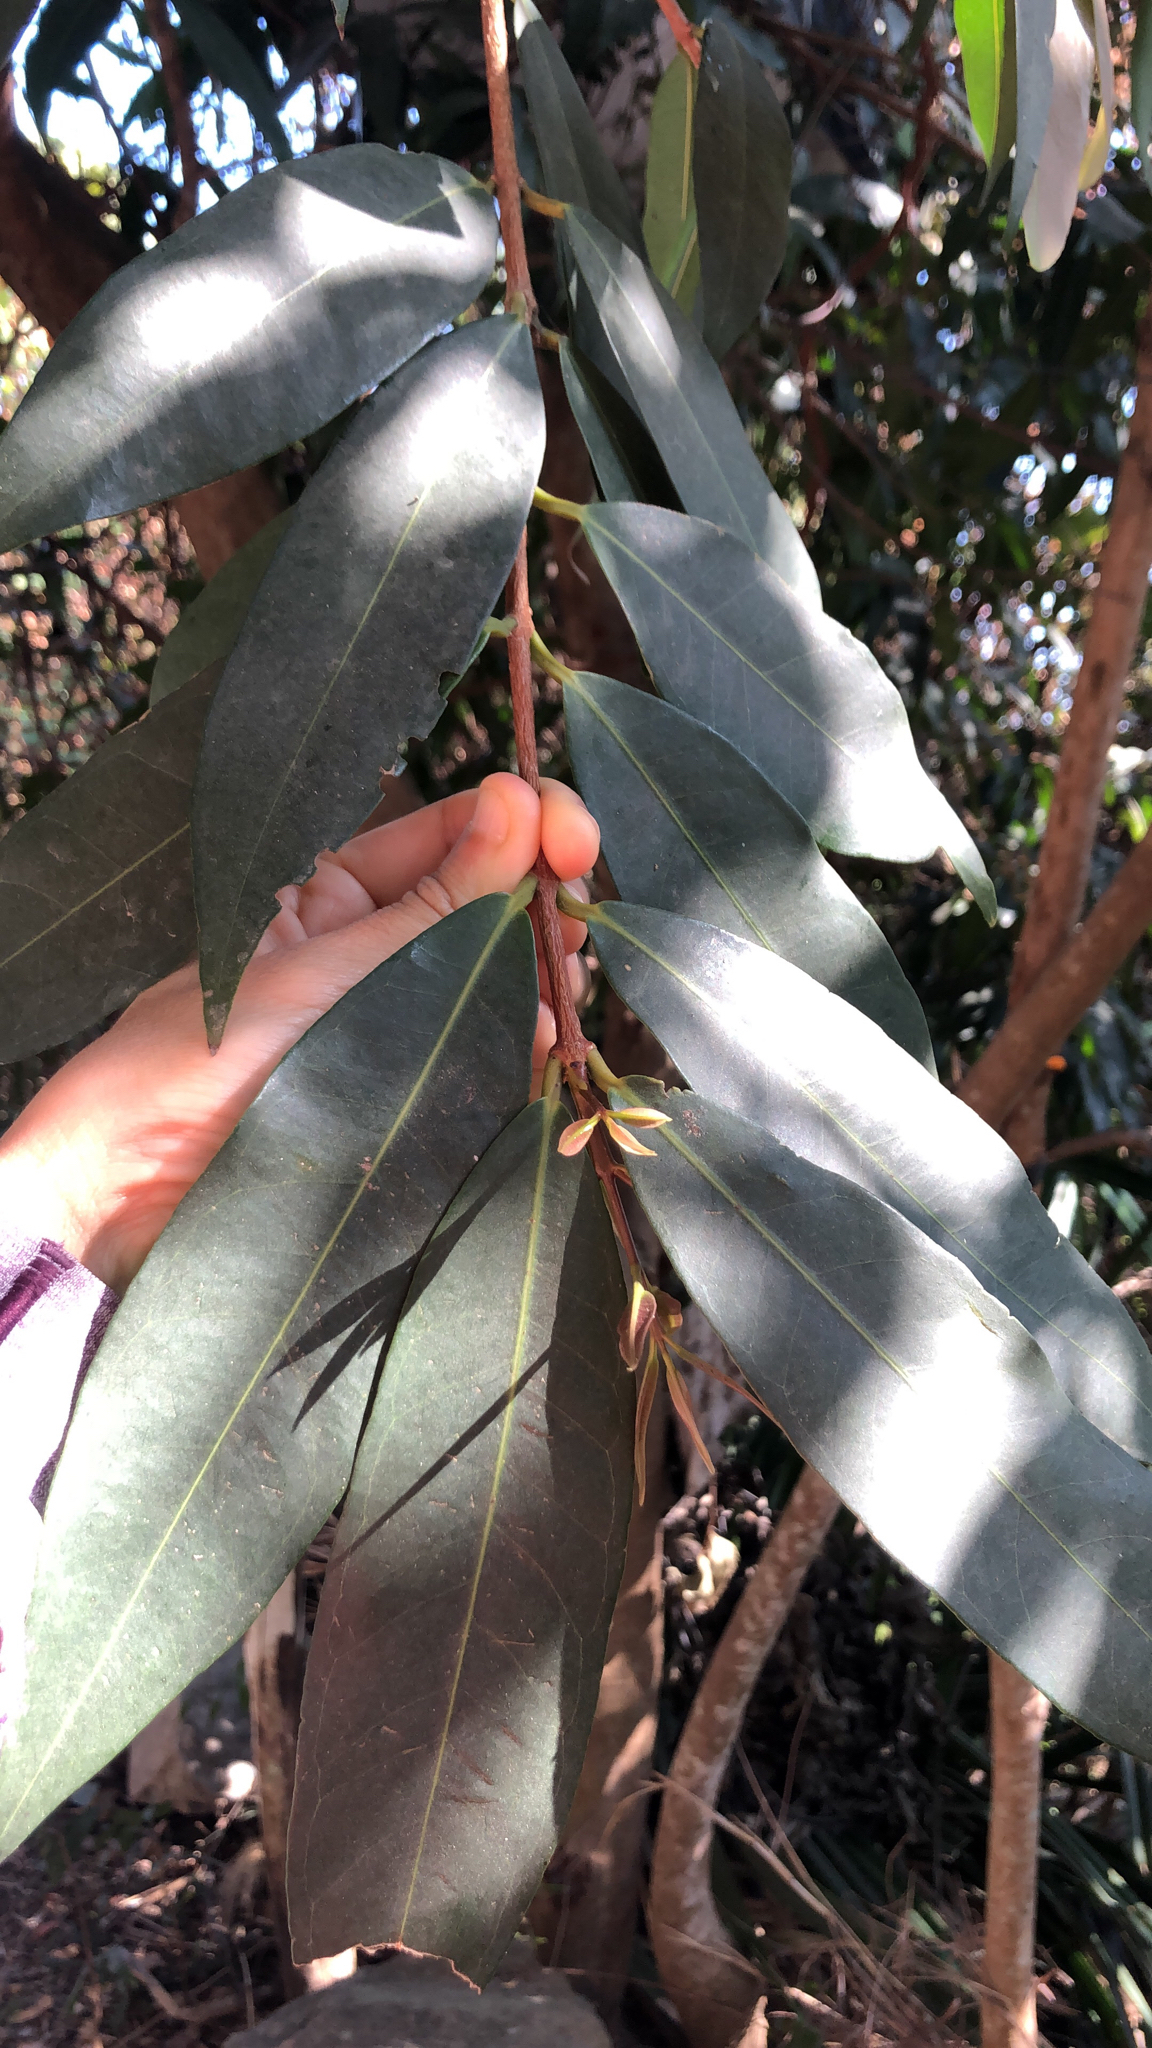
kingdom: Plantae
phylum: Tracheophyta
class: Magnoliopsida
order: Myrtales
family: Myrtaceae
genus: Syzygium
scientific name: Syzygium jambos
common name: Malabar plum
